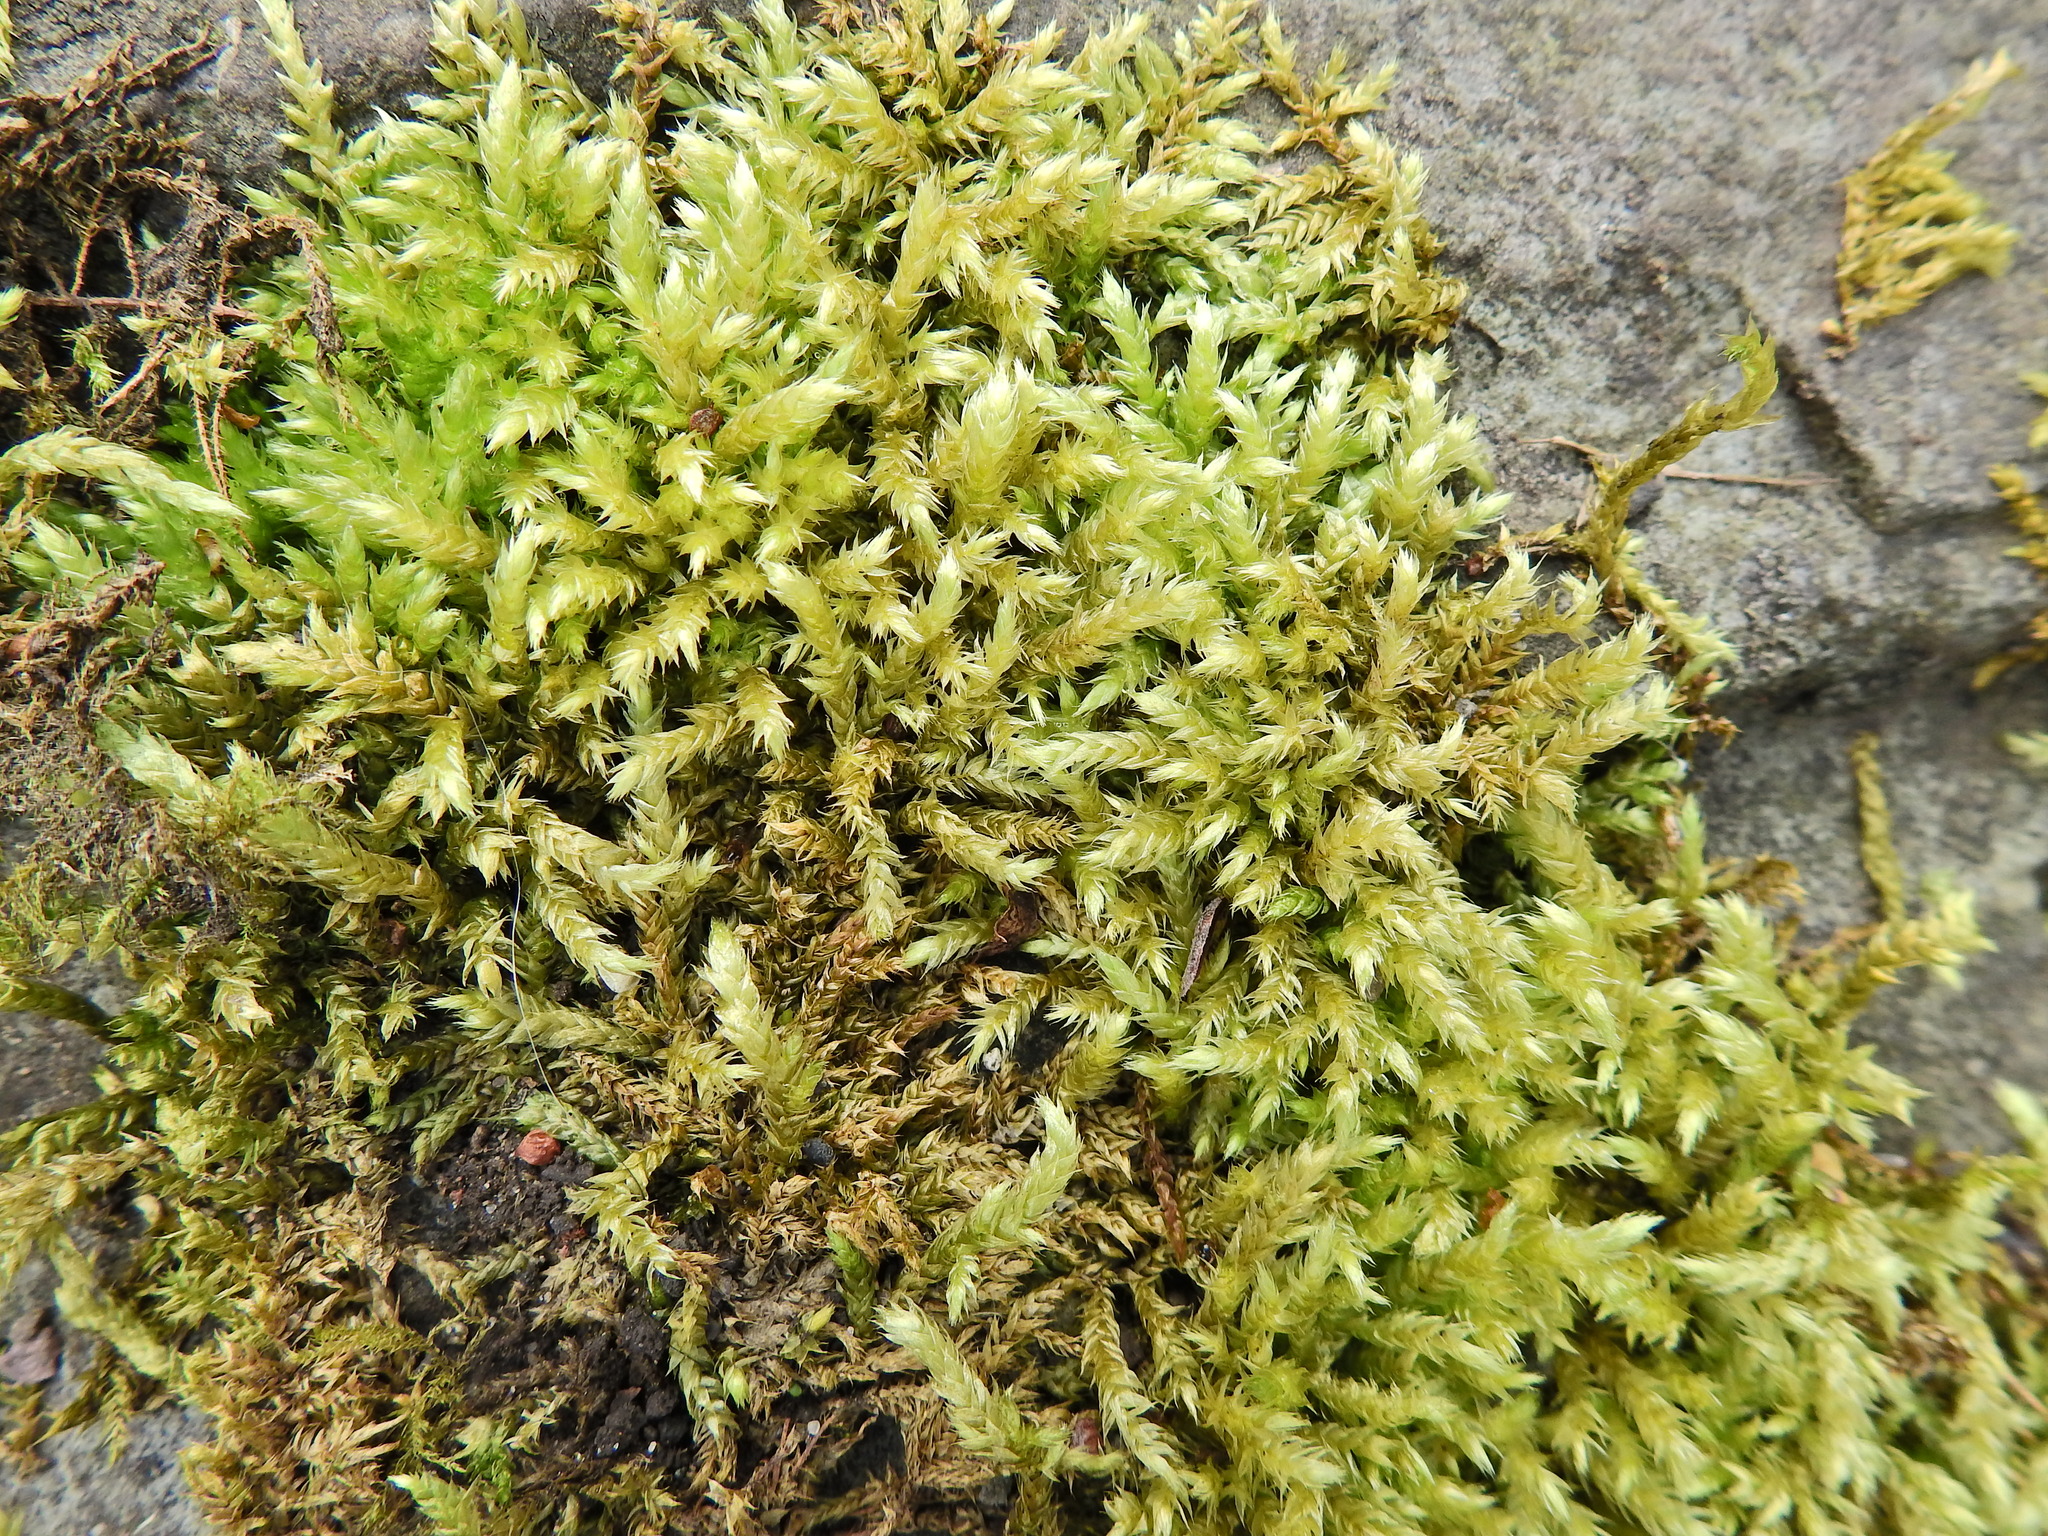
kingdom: Plantae
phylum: Bryophyta
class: Bryopsida
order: Hypnales
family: Brachytheciaceae
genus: Brachythecium
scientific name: Brachythecium rutabulum
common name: Rough-stalked feather-moss
